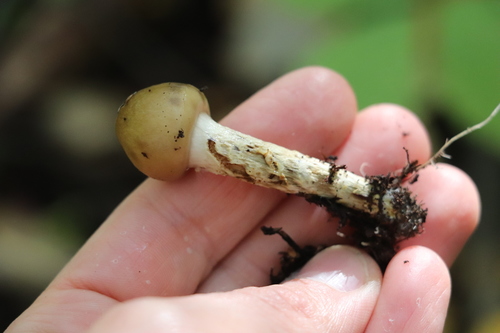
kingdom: Fungi
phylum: Basidiomycota
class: Agaricomycetes
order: Agaricales
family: Cortinariaceae
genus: Cortinarius
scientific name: Cortinarius trivialis
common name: Girdled webcap
